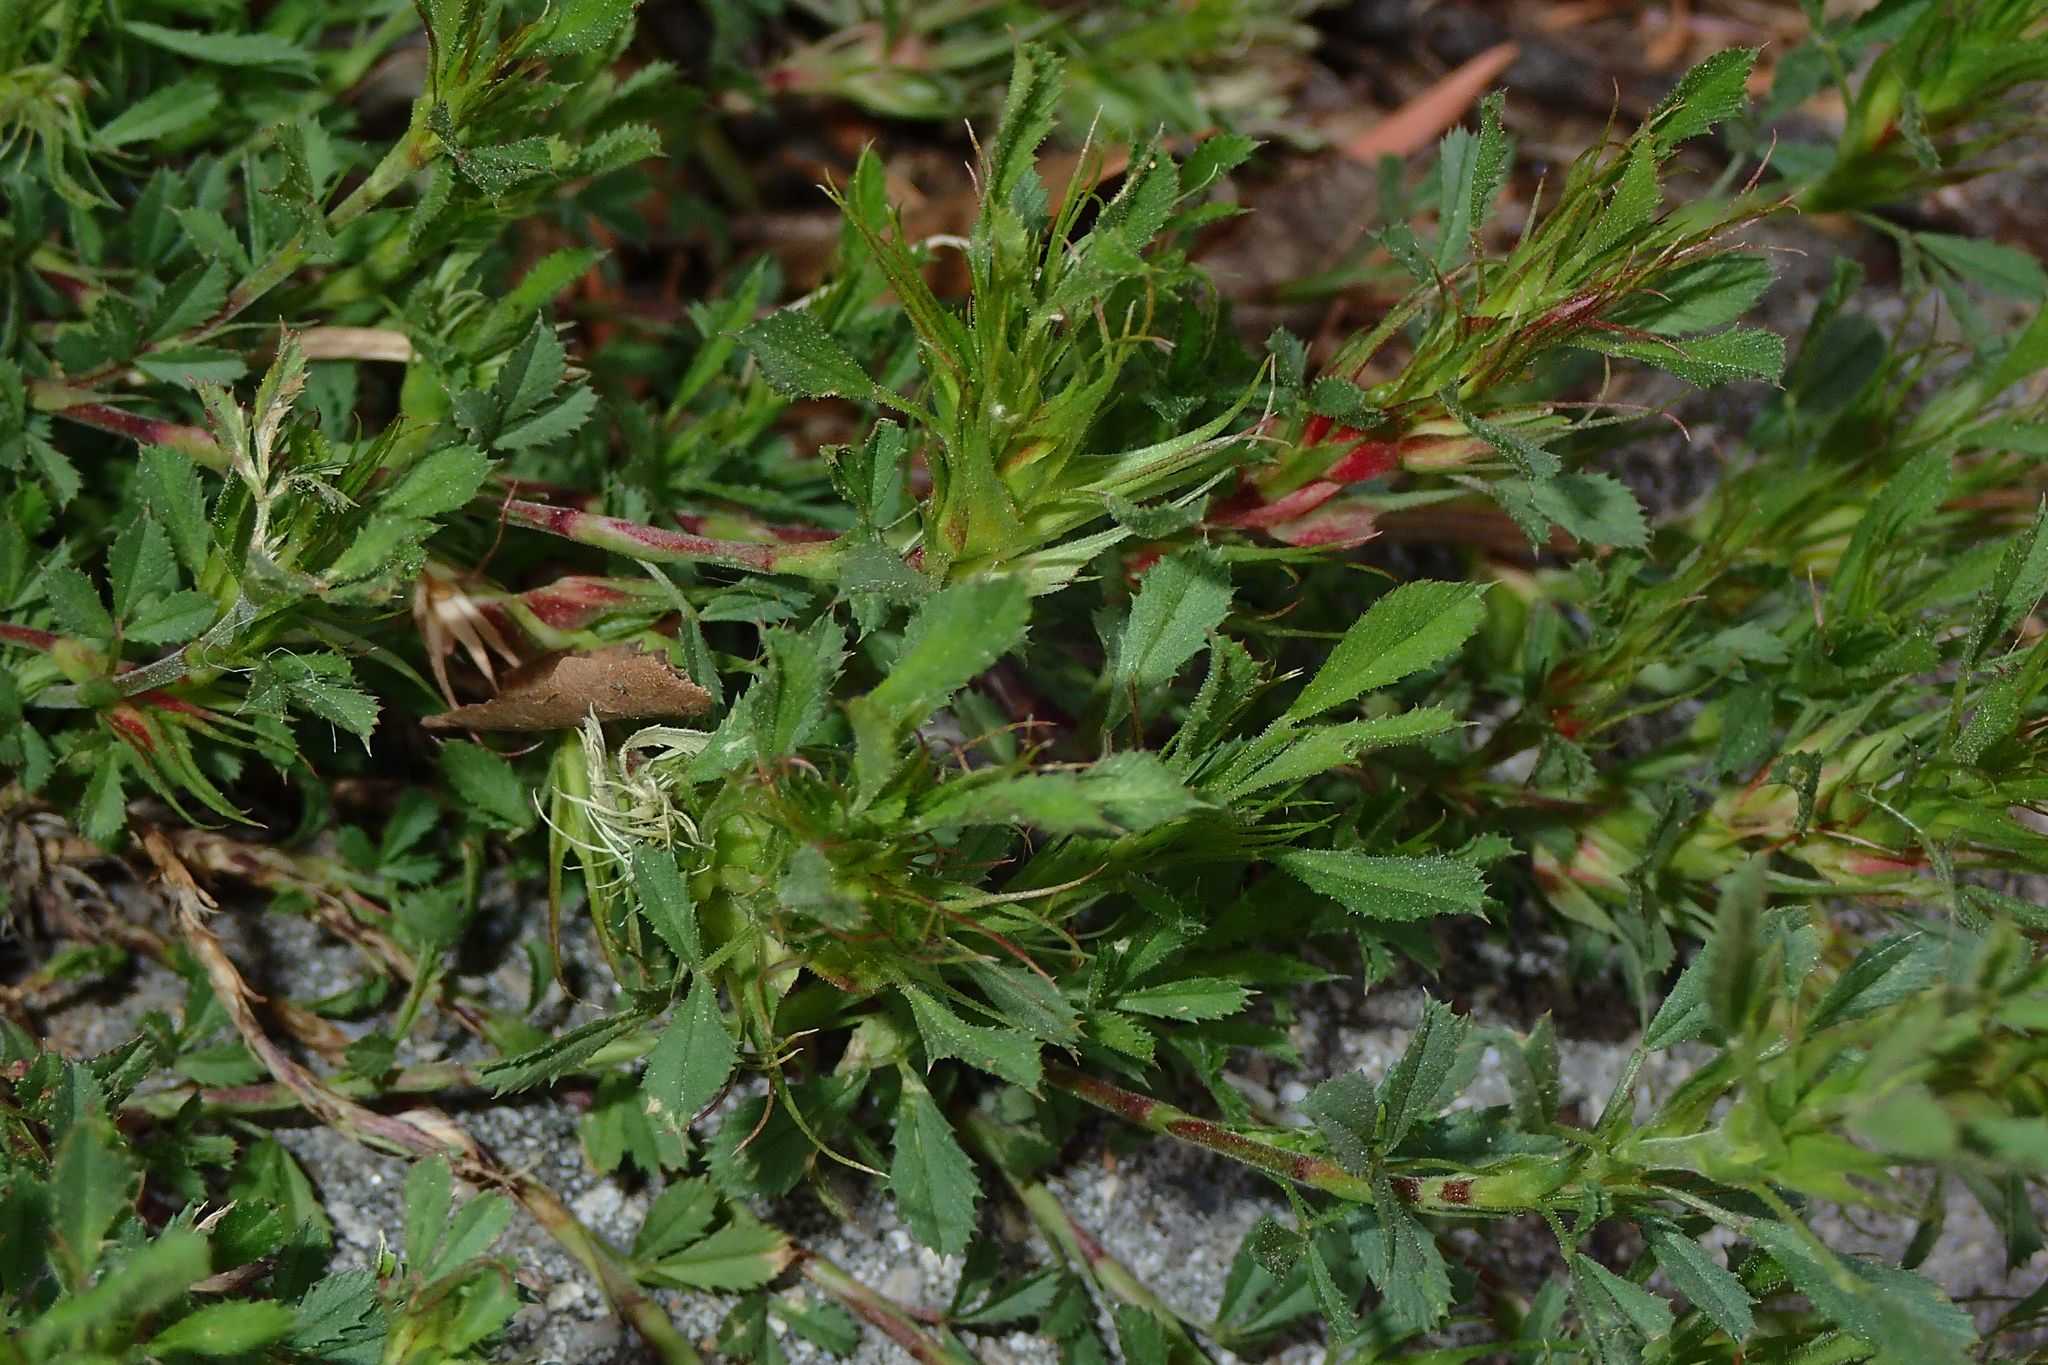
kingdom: Plantae
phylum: Tracheophyta
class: Magnoliopsida
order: Fabales
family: Fabaceae
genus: Ononis
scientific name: Ononis minutissima
